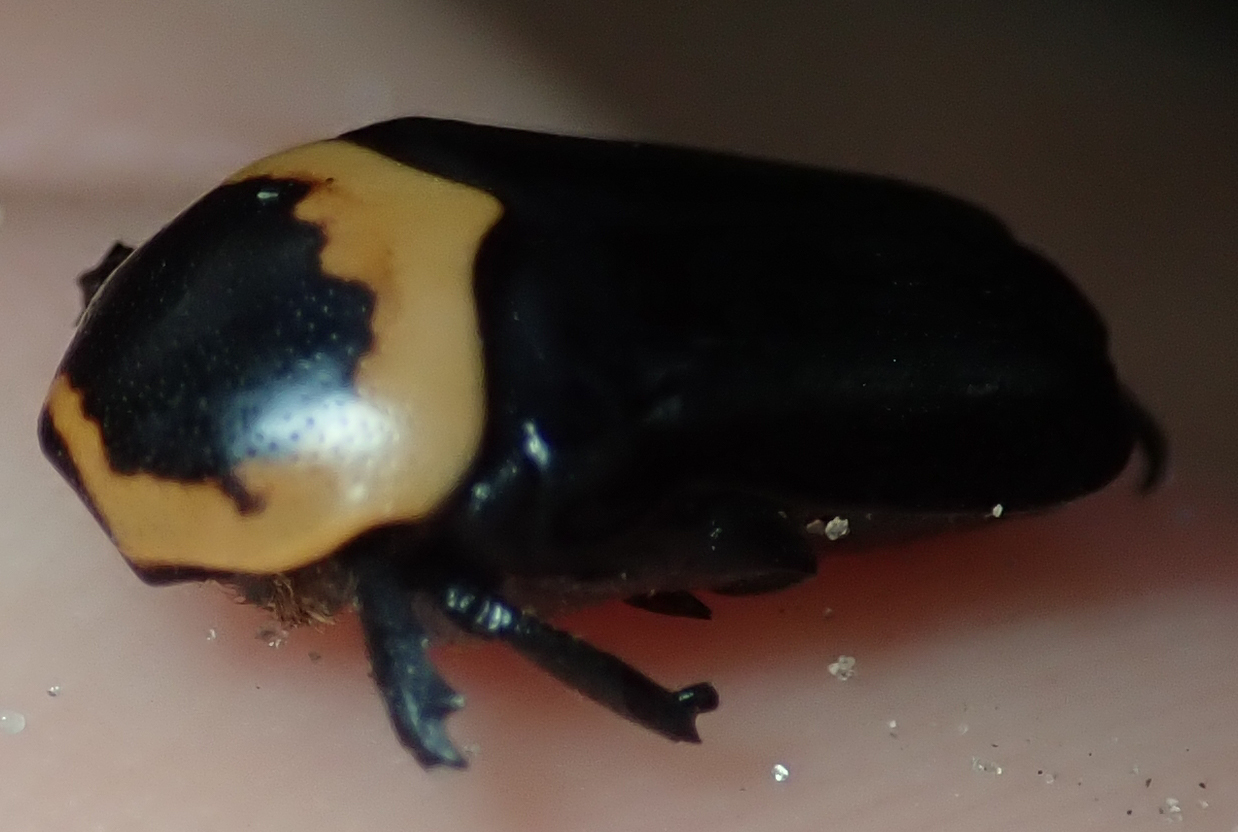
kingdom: Animalia
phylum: Arthropoda
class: Insecta
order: Coleoptera
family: Scarabaeidae
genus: Pseudoclinteria
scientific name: Pseudoclinteria cincticollis
